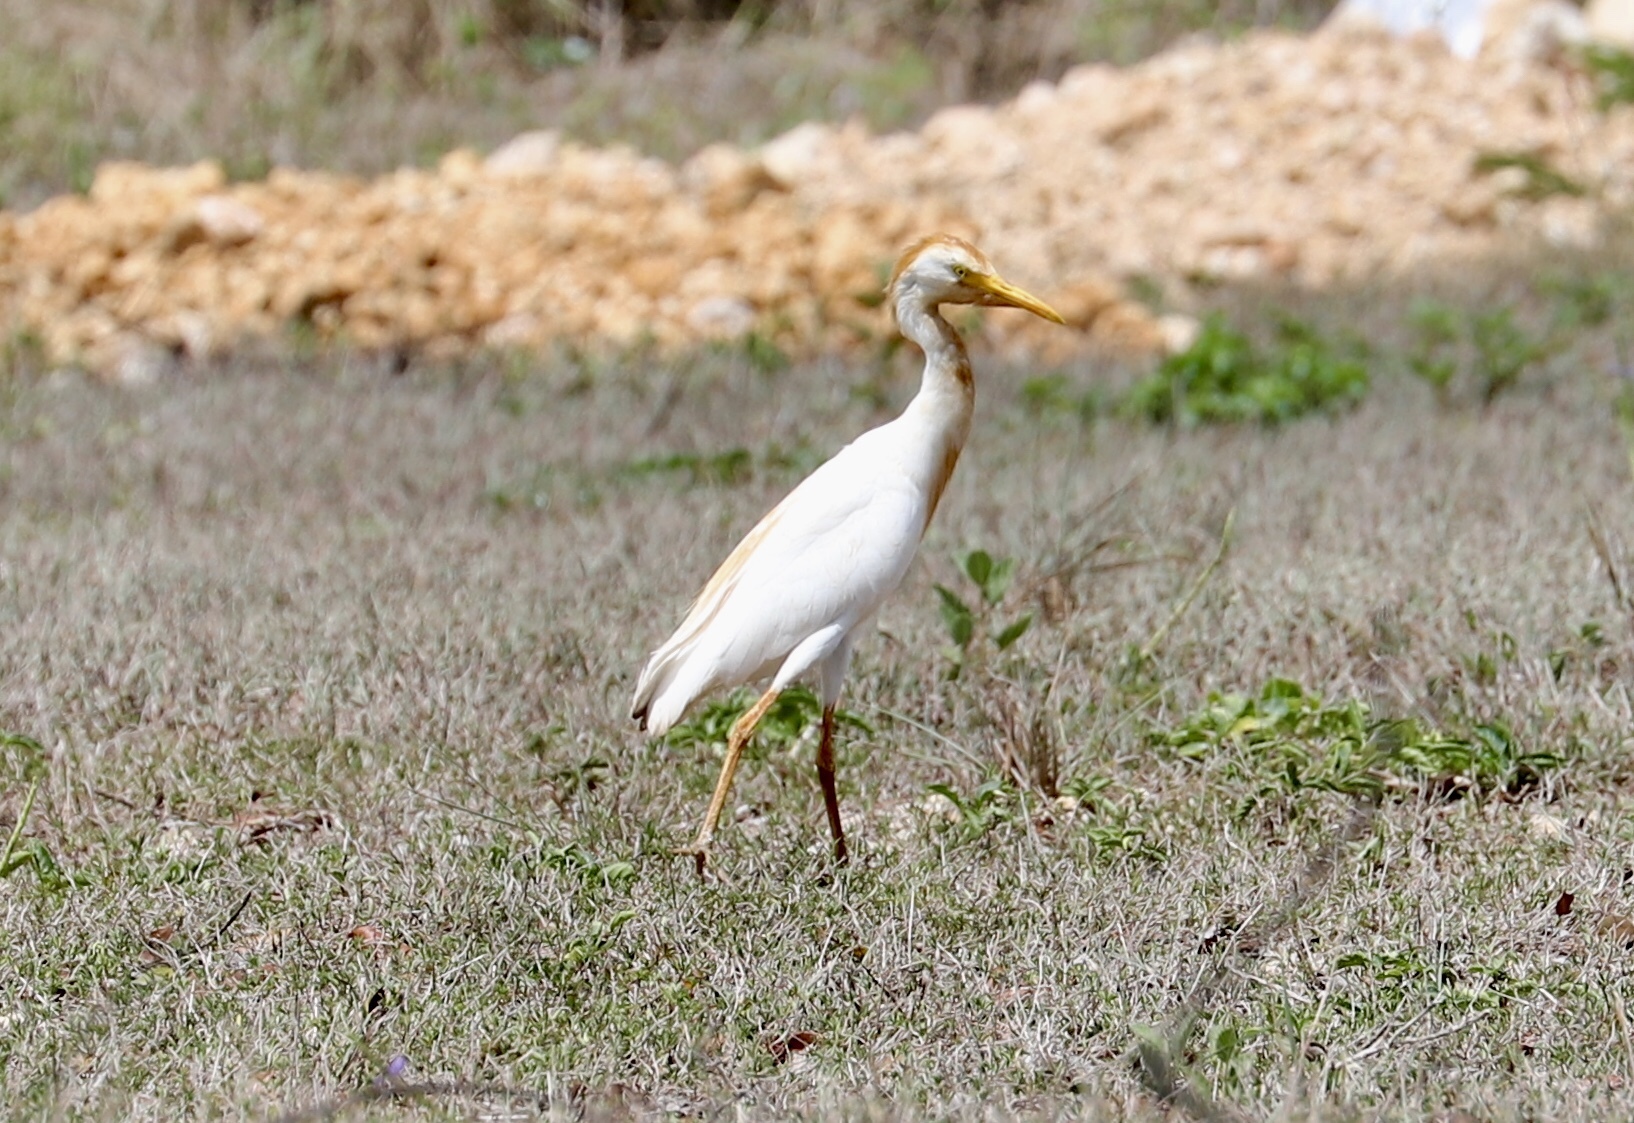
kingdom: Animalia
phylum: Chordata
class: Aves
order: Pelecaniformes
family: Ardeidae
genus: Bubulcus
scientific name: Bubulcus ibis
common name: Cattle egret
